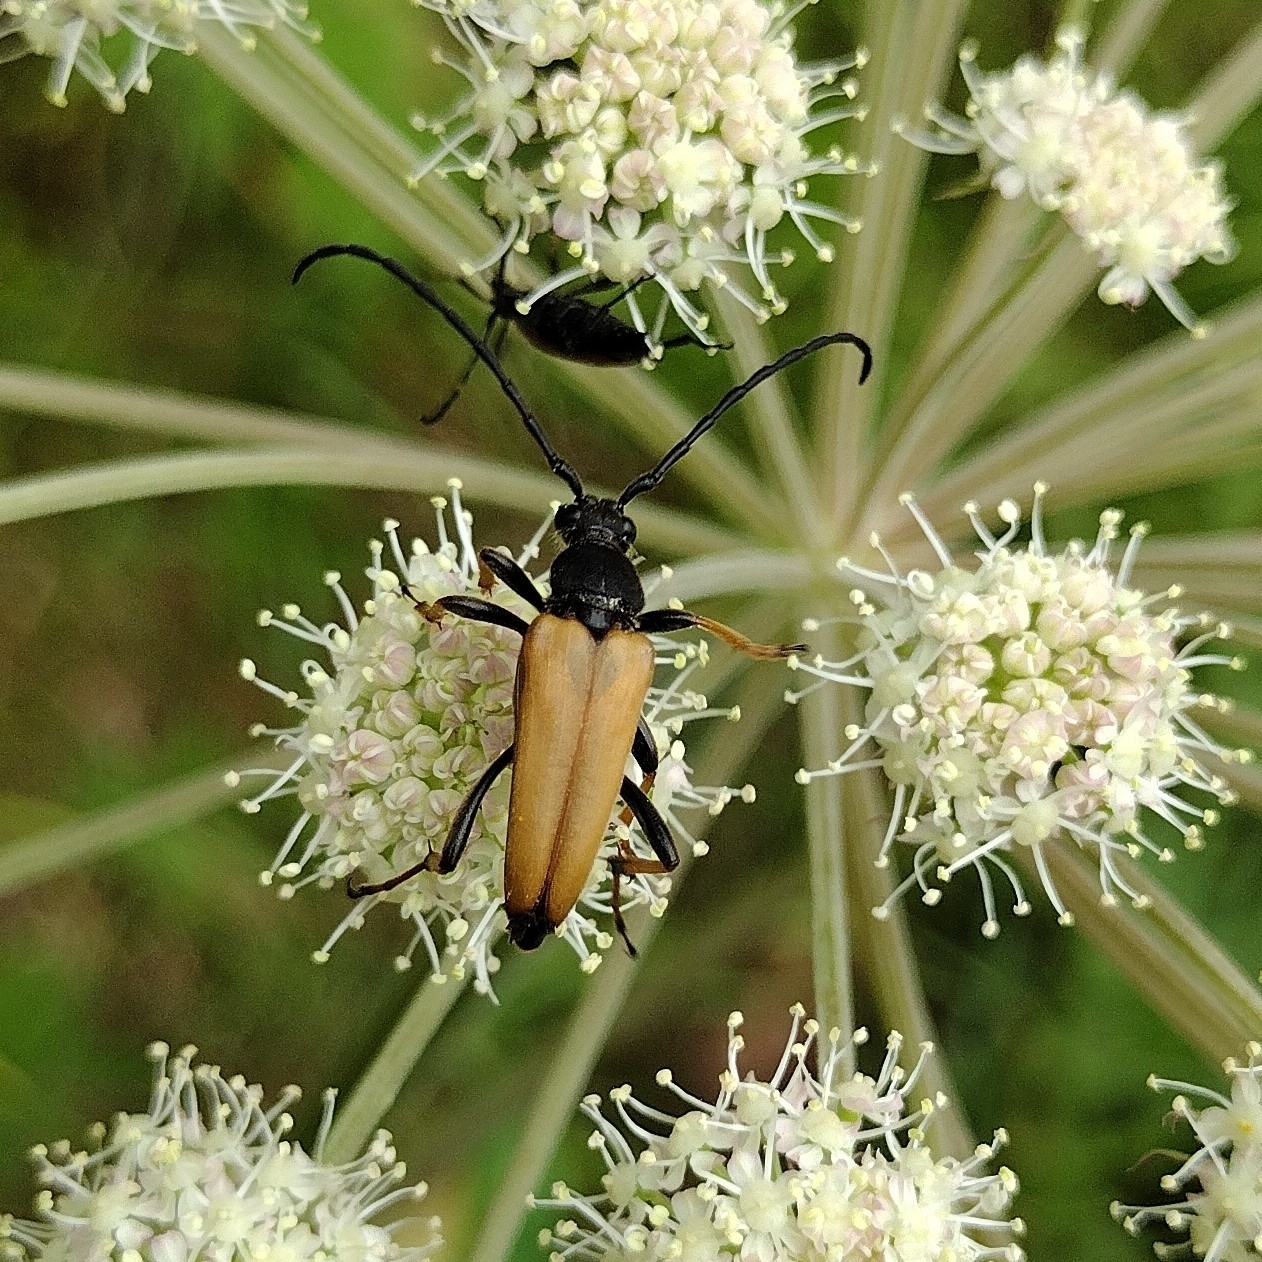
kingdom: Animalia
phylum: Arthropoda
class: Insecta
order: Coleoptera
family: Cerambycidae
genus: Stictoleptura
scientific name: Stictoleptura rubra
